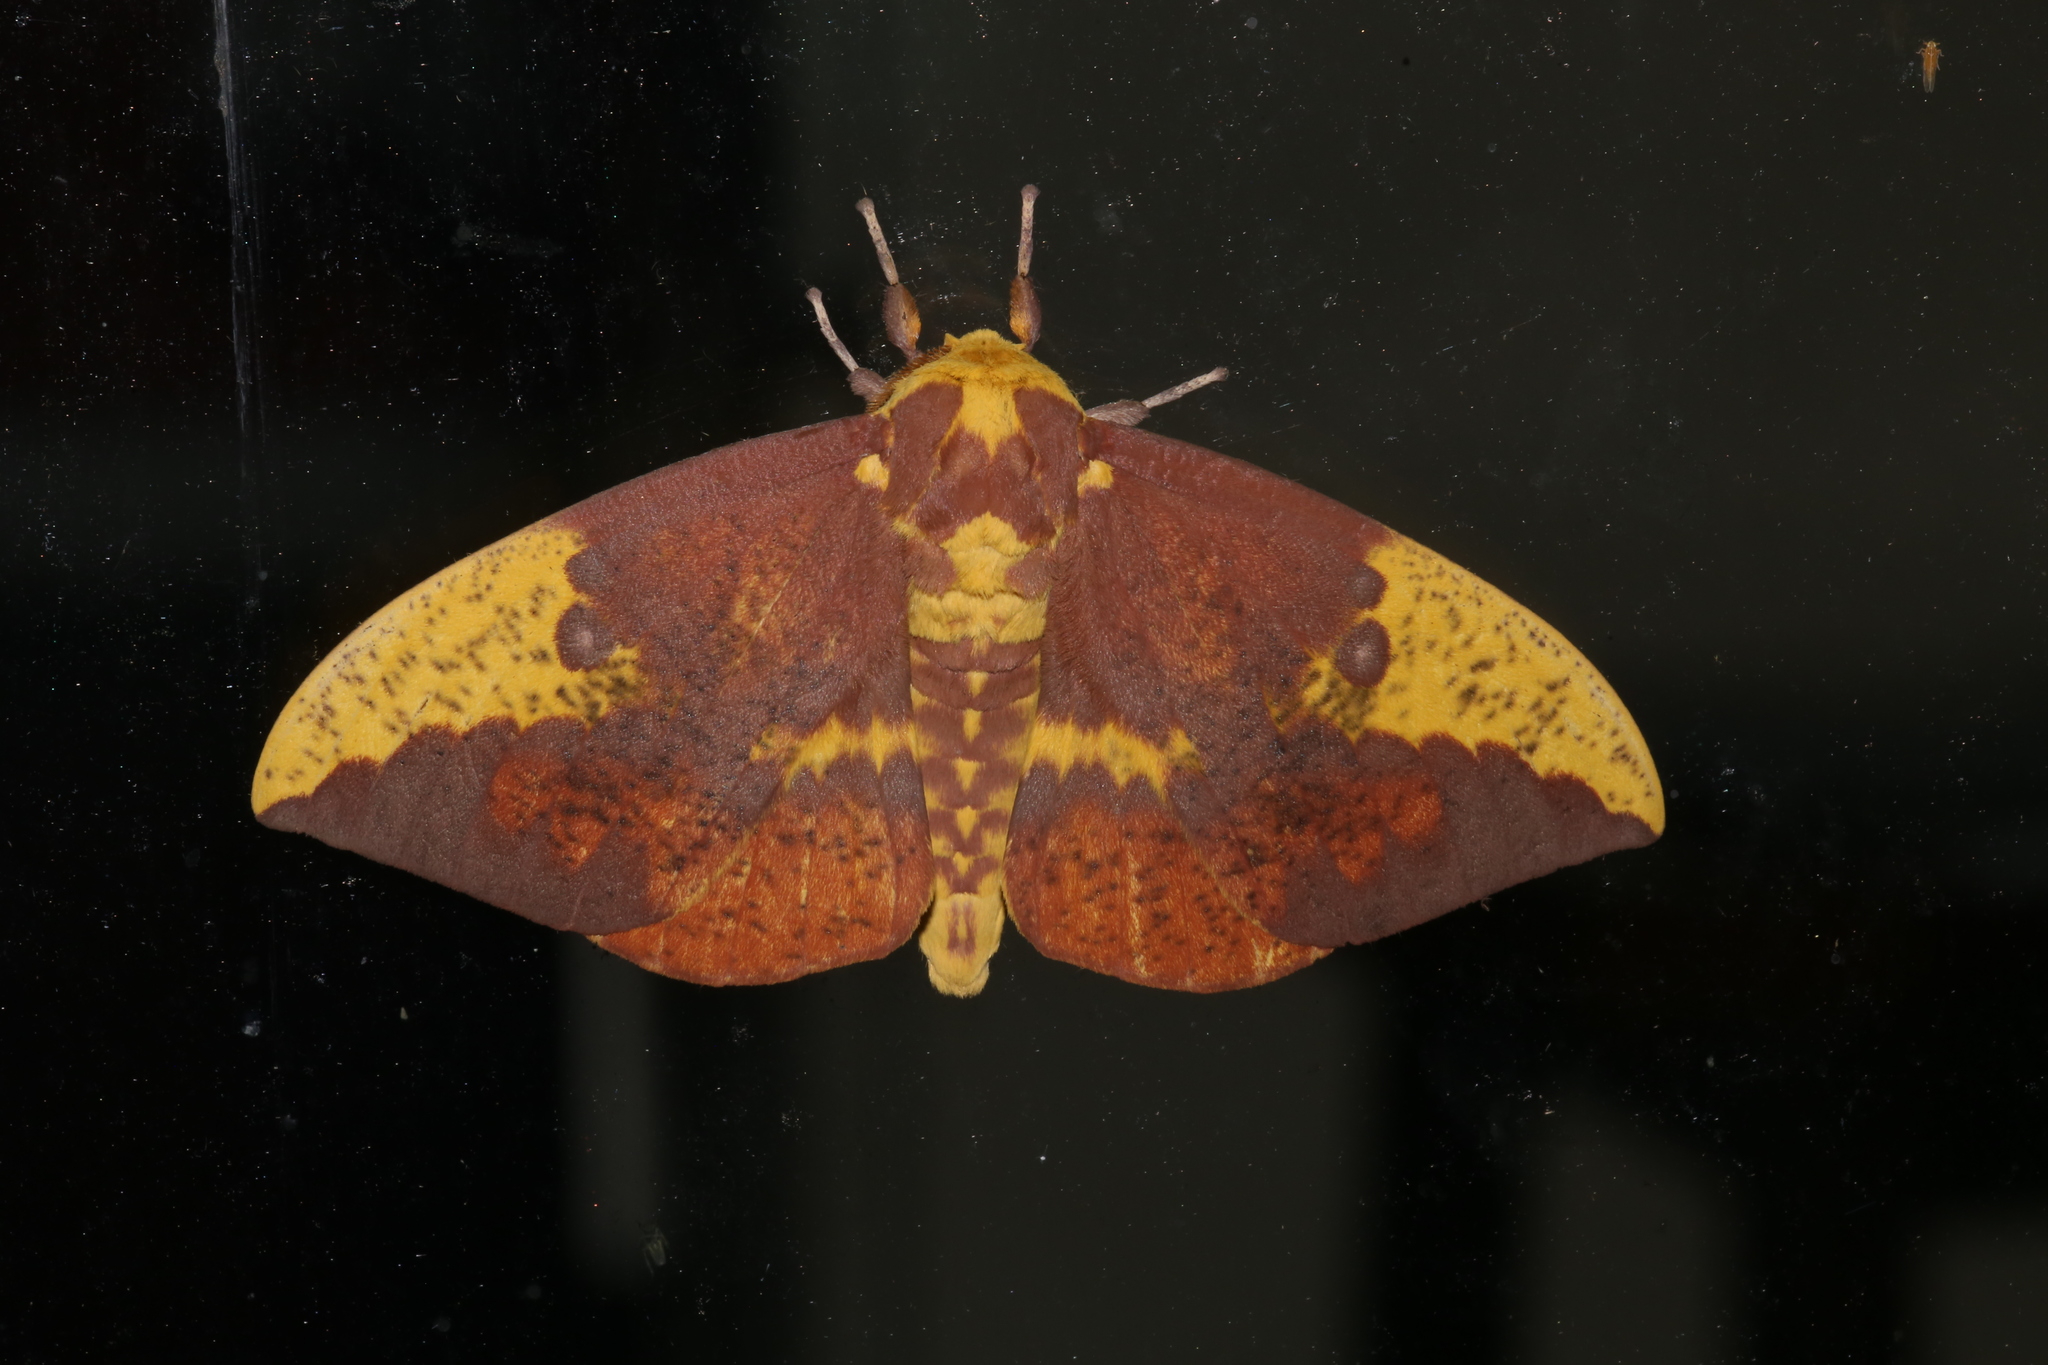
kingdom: Animalia
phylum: Arthropoda
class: Insecta
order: Lepidoptera
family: Saturniidae
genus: Eacles
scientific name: Eacles imperialis
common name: Imperial moth
